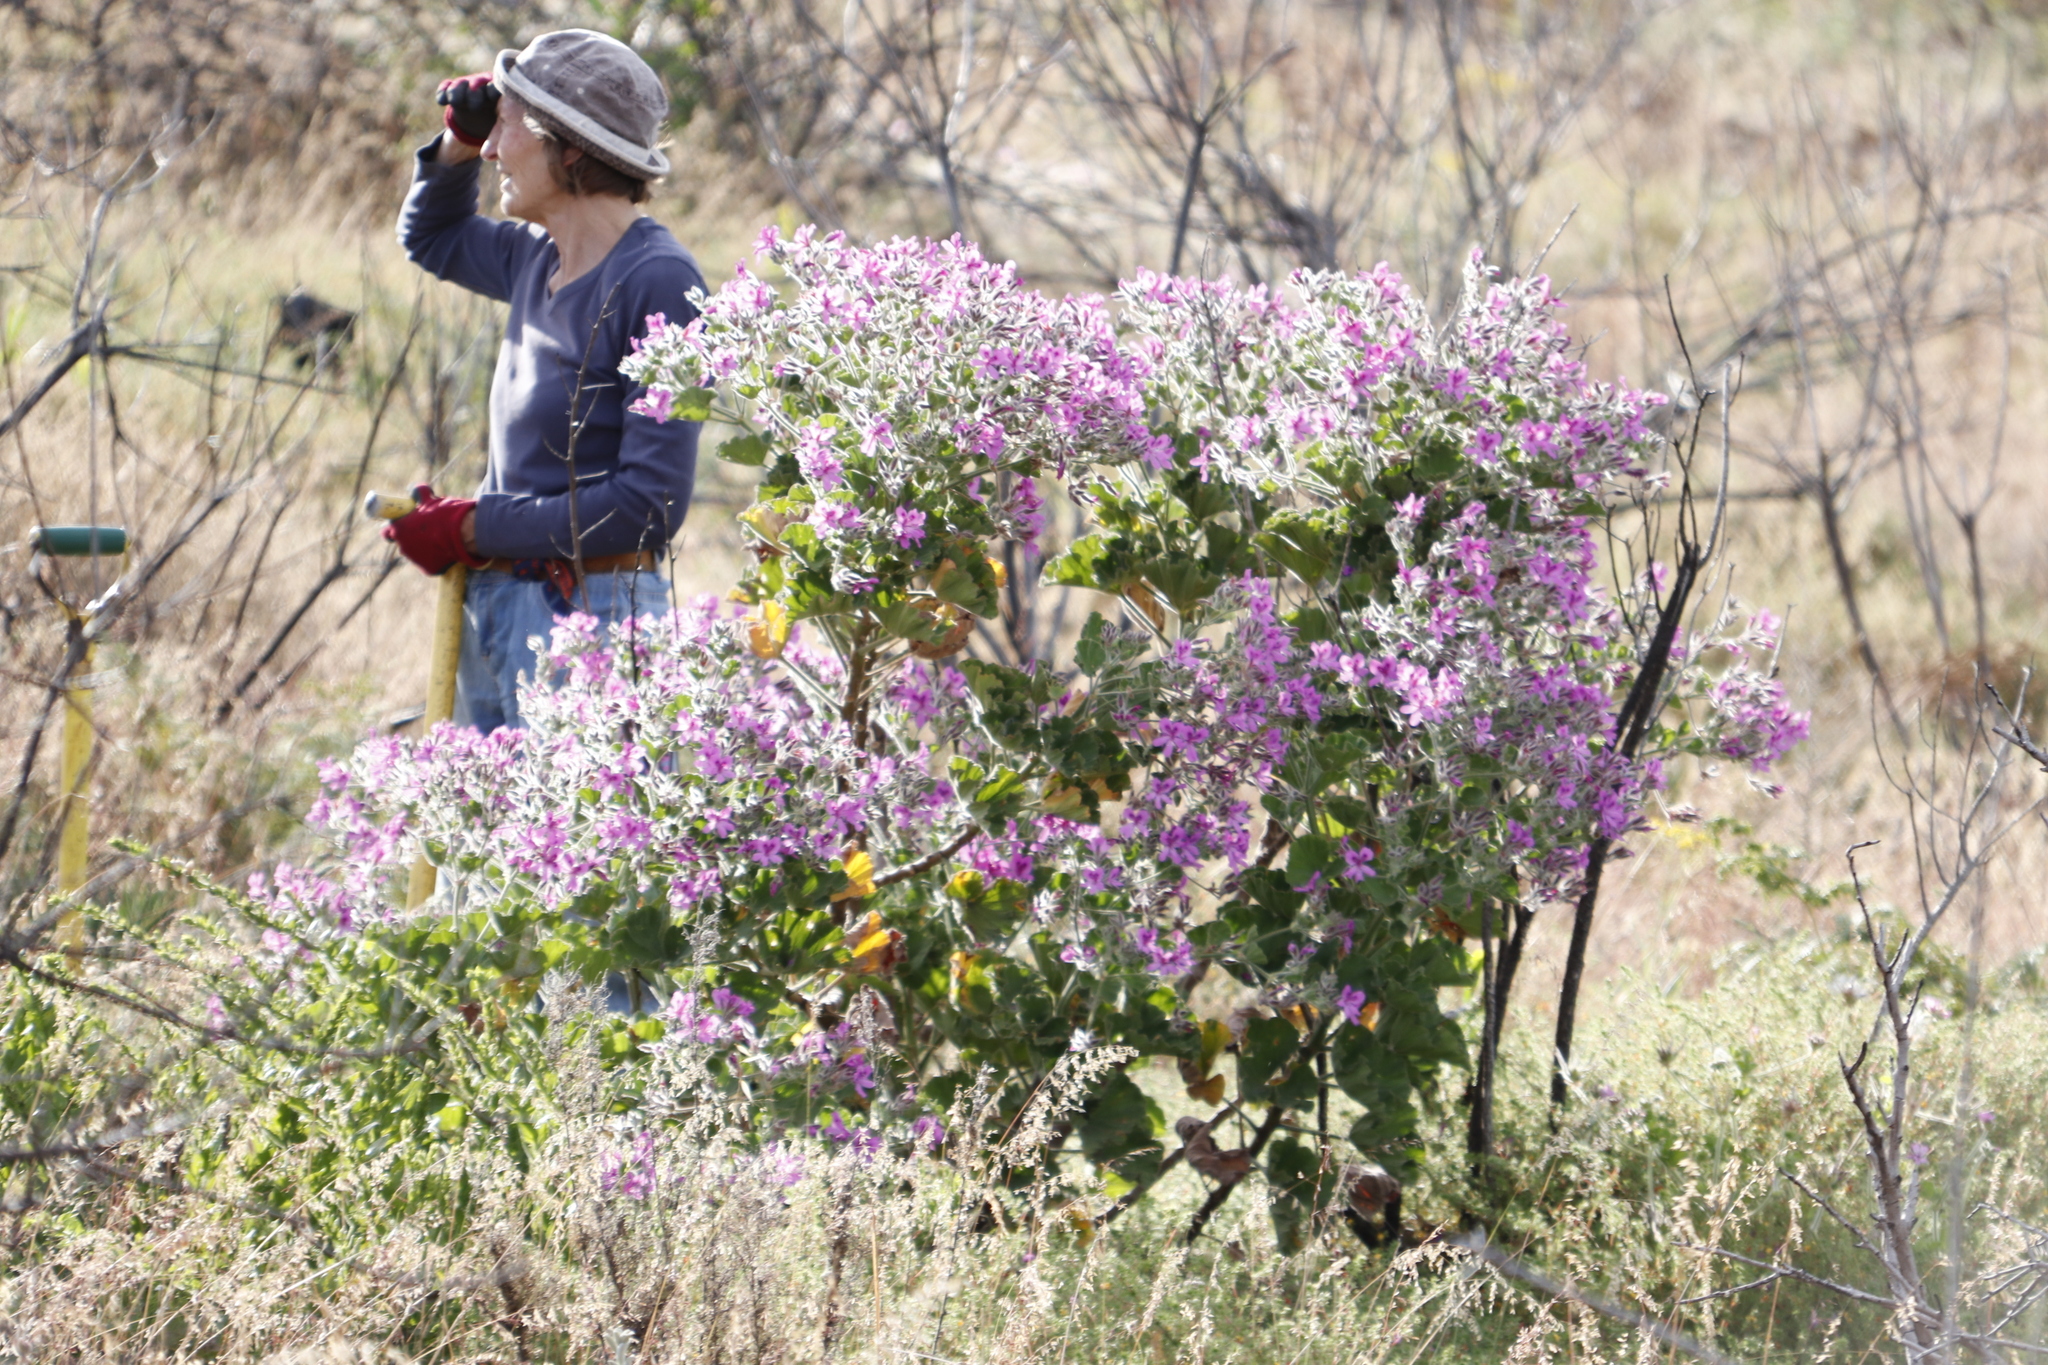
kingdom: Plantae
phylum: Tracheophyta
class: Magnoliopsida
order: Geraniales
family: Geraniaceae
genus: Pelargonium
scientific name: Pelargonium cucullatum
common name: Tree pelargonium
